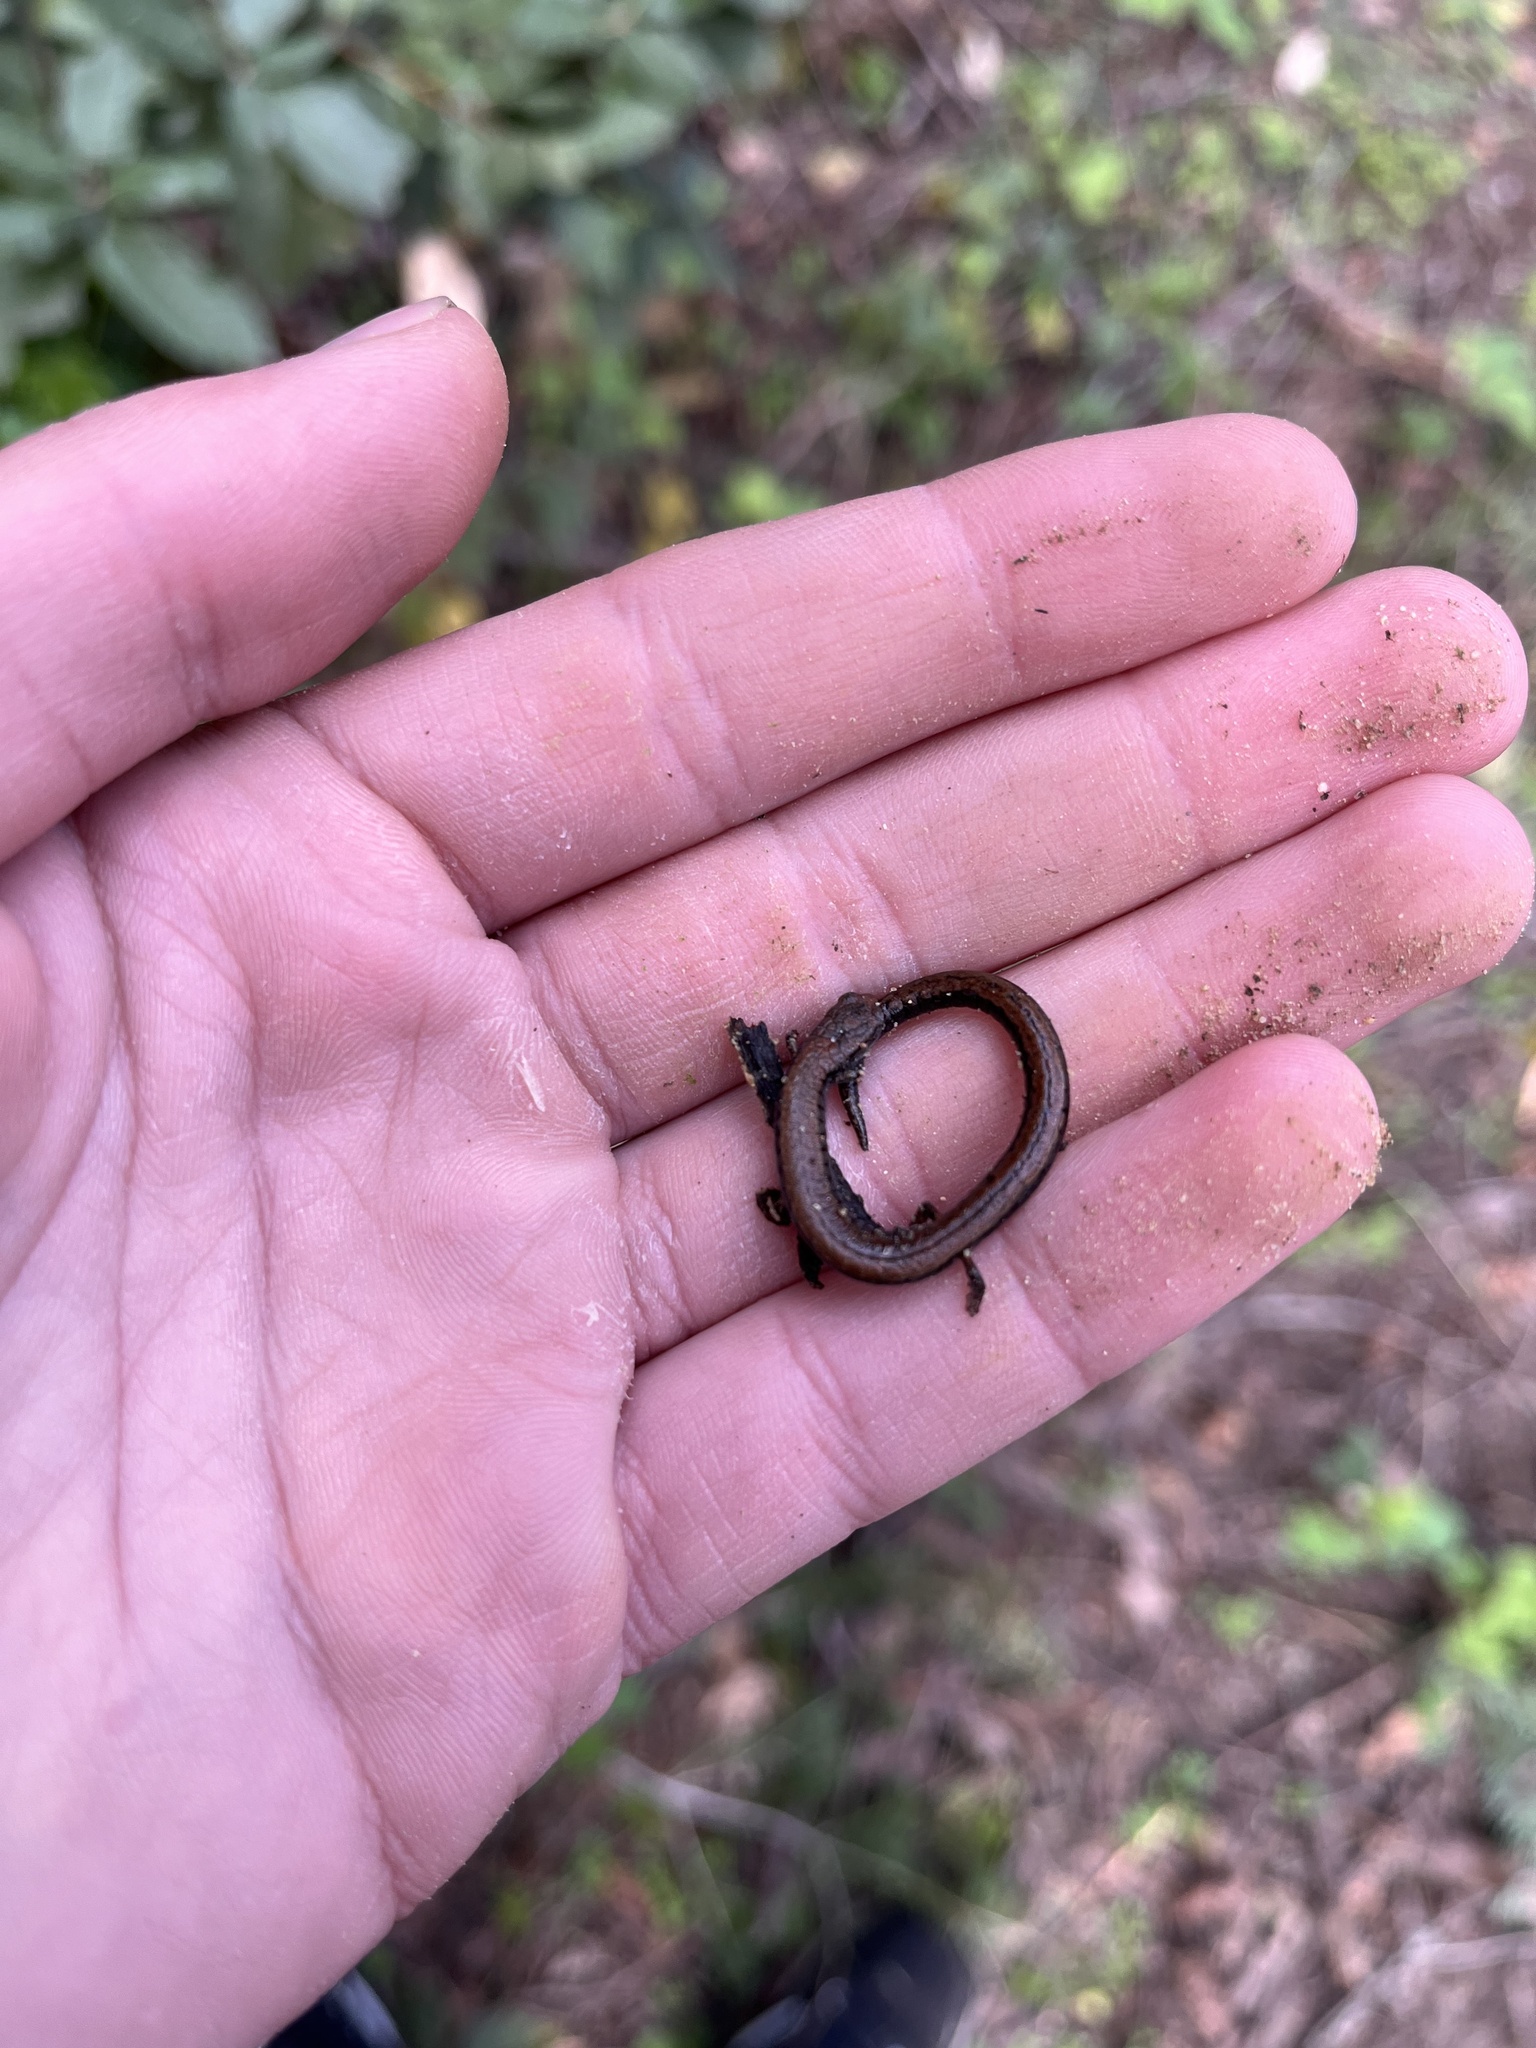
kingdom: Animalia
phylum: Chordata
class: Amphibia
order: Caudata
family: Plethodontidae
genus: Batrachoseps
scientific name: Batrachoseps attenuatus
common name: California slender salamander
